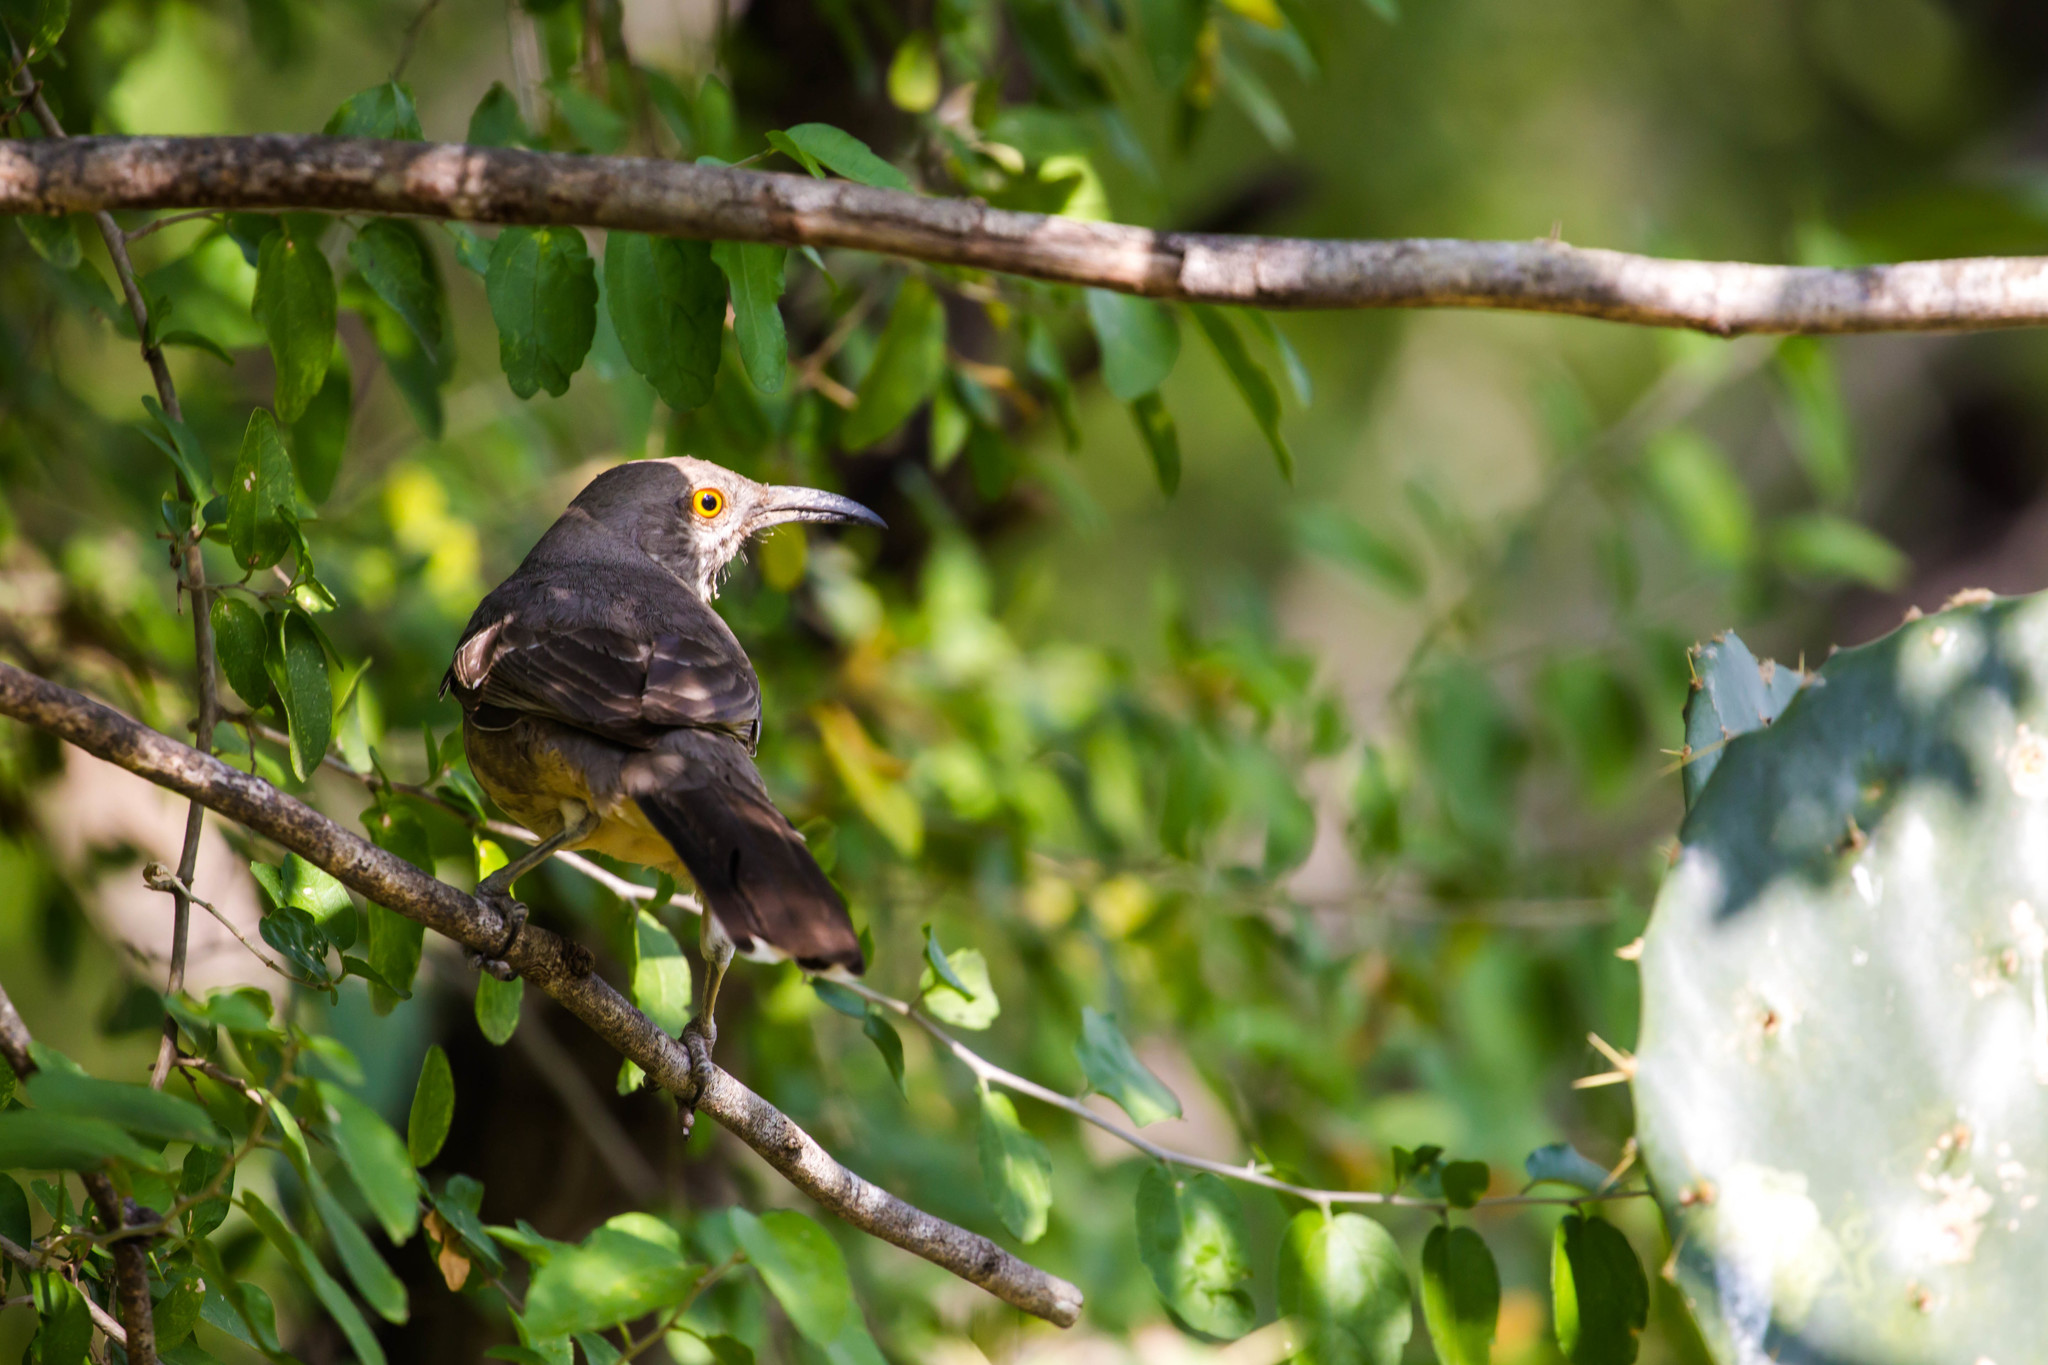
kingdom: Animalia
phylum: Chordata
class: Aves
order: Passeriformes
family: Mimidae
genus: Toxostoma
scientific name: Toxostoma curvirostre
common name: Curve-billed thrasher
